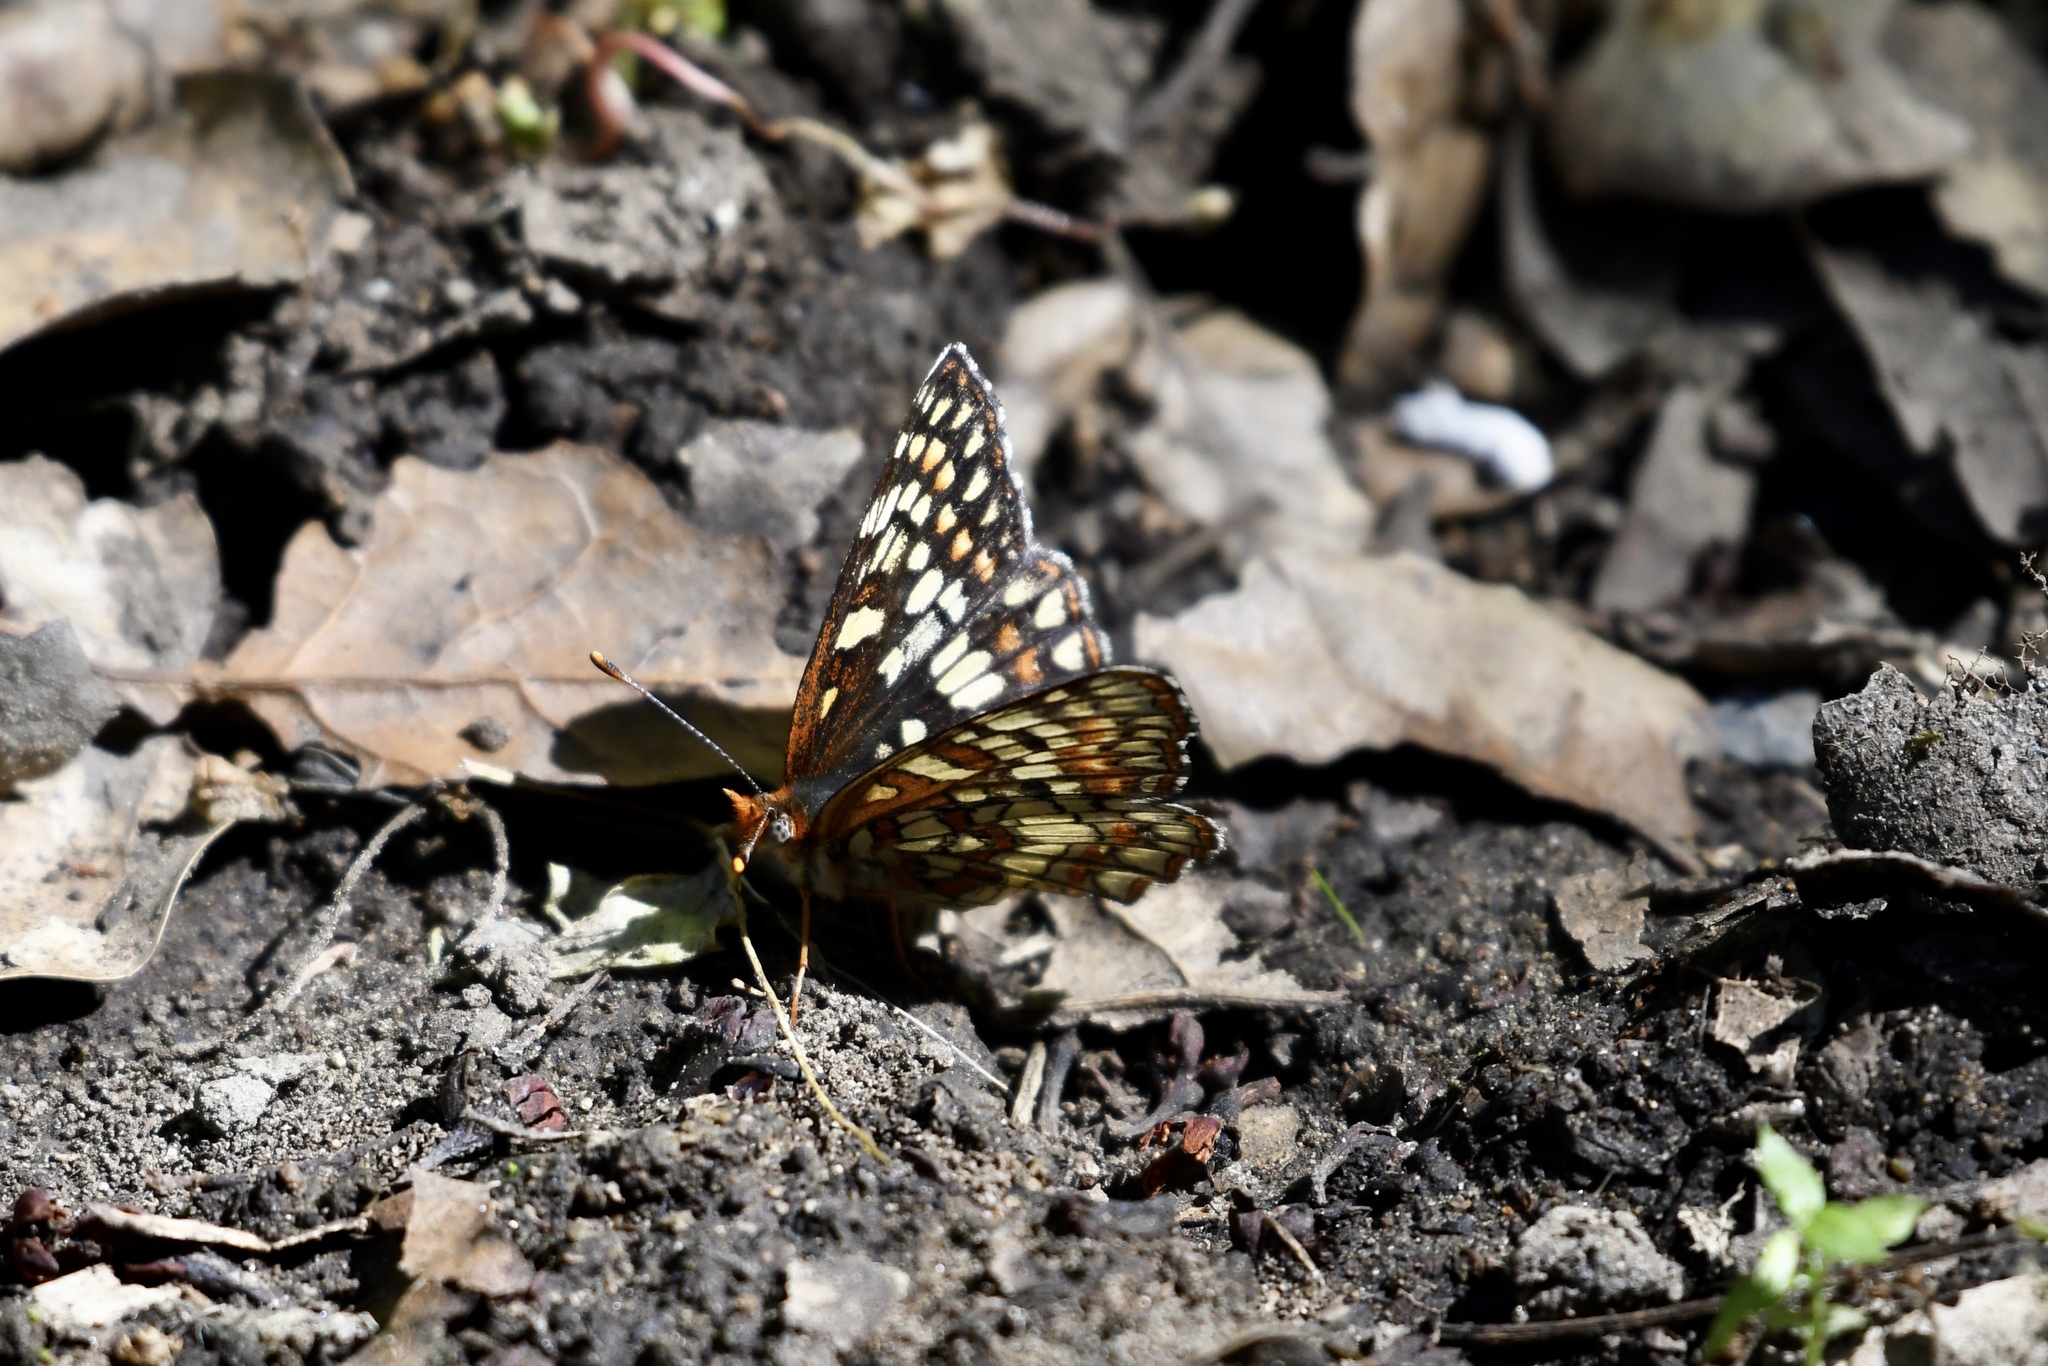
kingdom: Animalia
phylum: Arthropoda
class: Insecta
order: Lepidoptera
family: Nymphalidae
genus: Chlosyne
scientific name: Chlosyne palla
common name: Northern checkerspot
